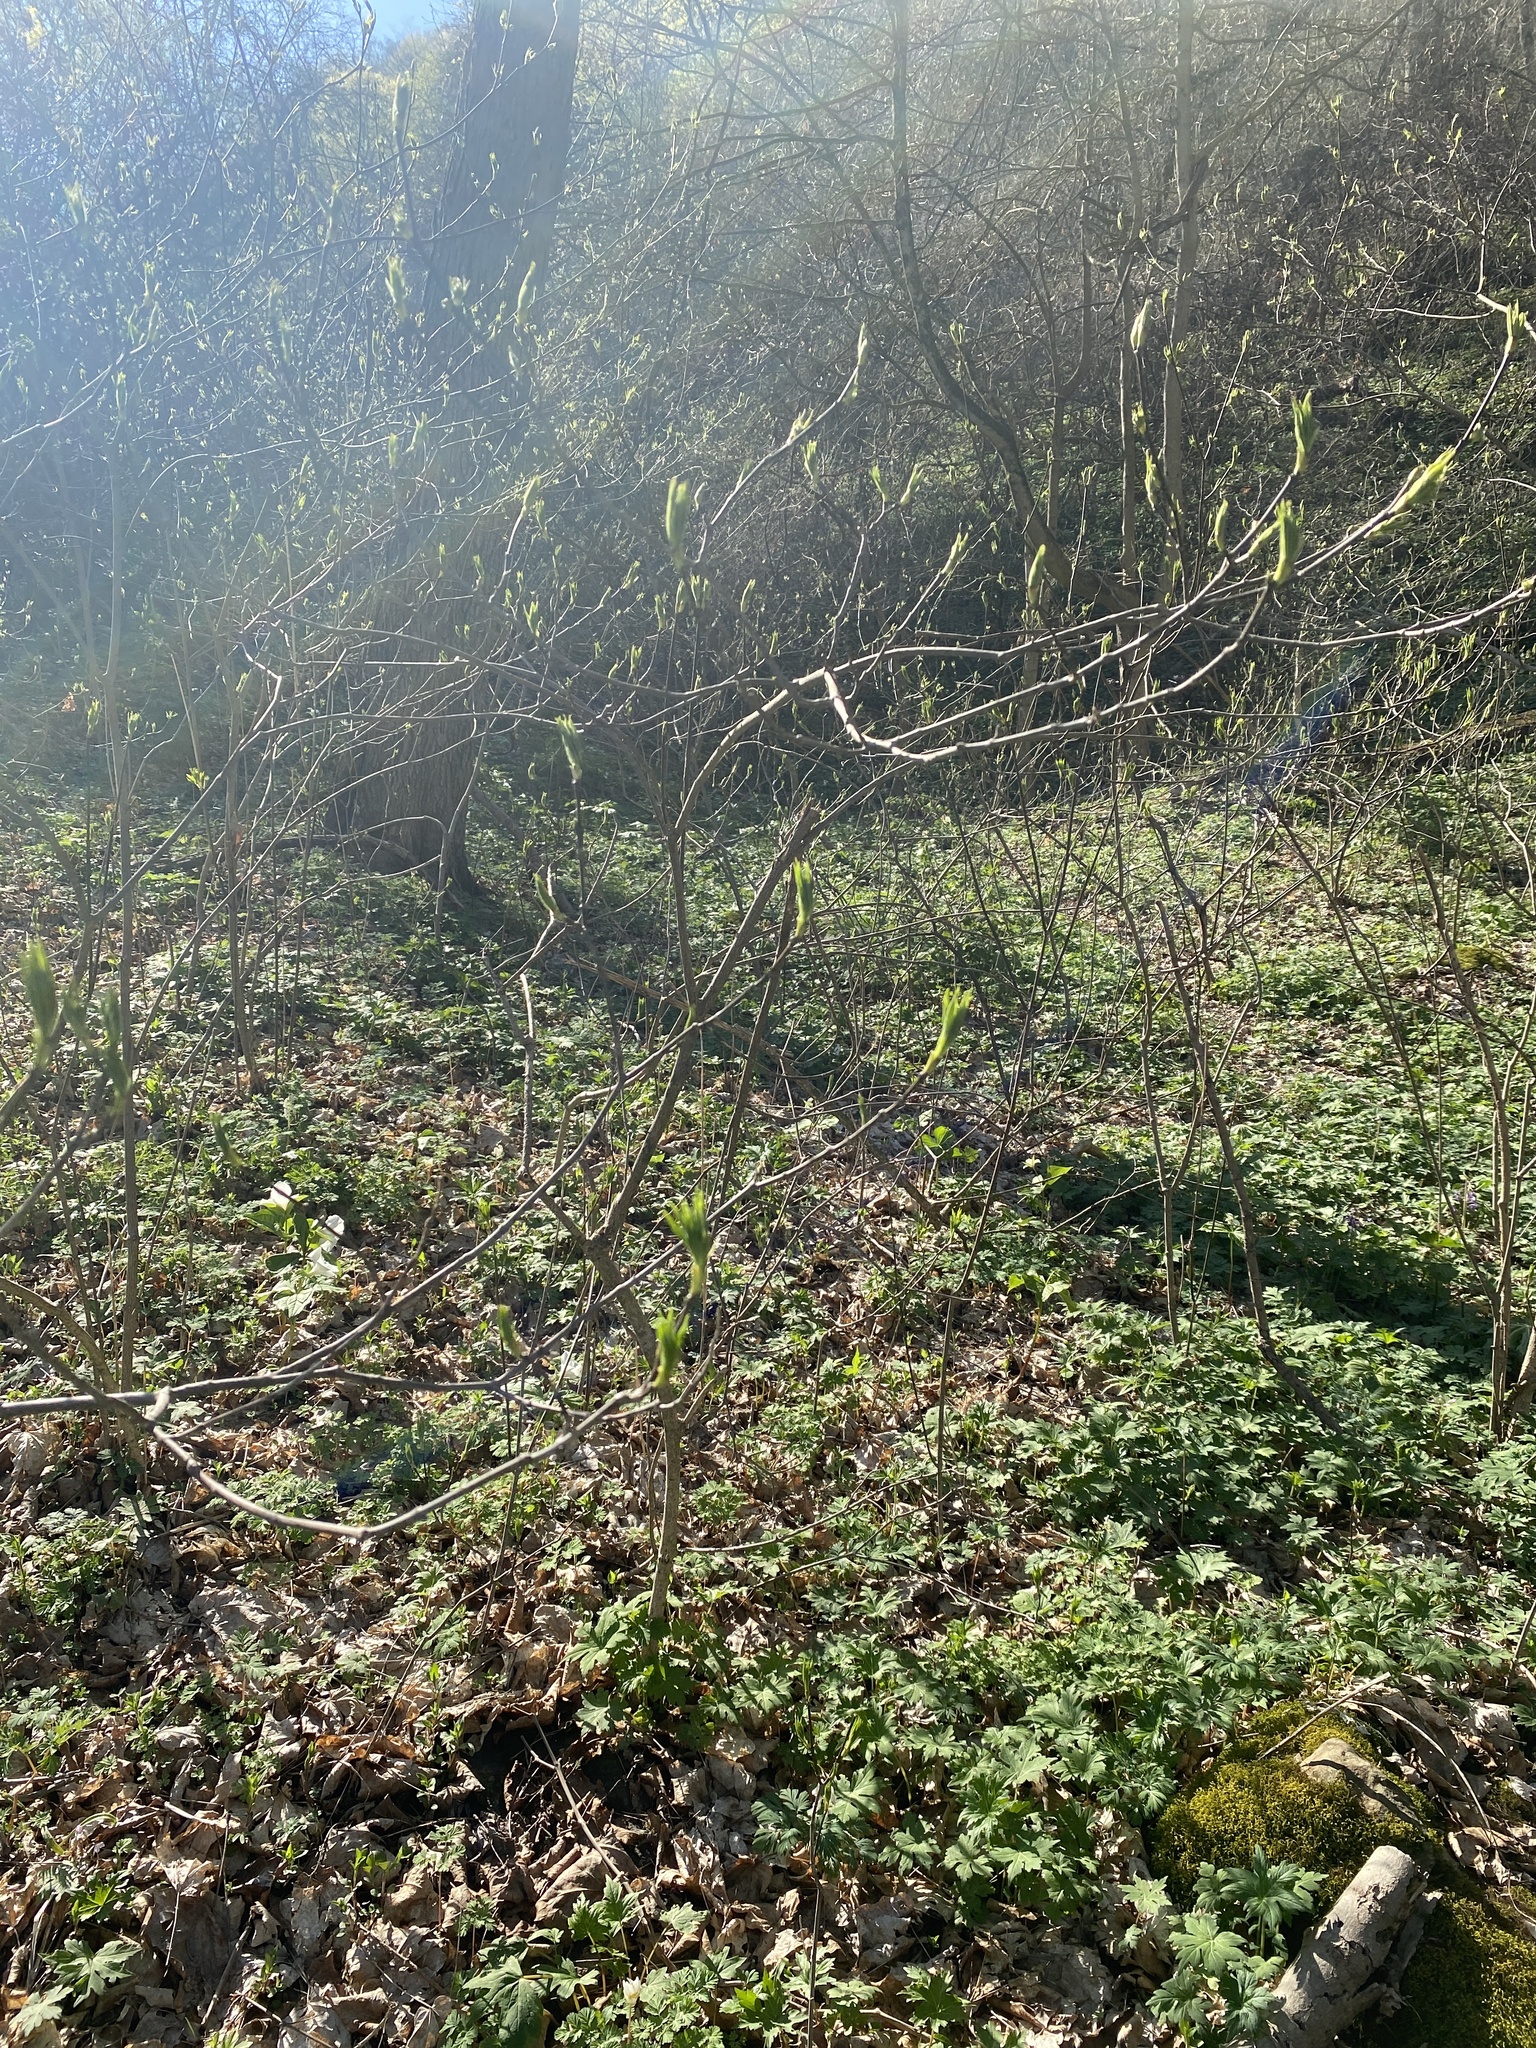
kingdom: Plantae
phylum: Tracheophyta
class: Magnoliopsida
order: Crossosomatales
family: Staphyleaceae
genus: Staphylea
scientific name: Staphylea trifolia
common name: American bladdernut
